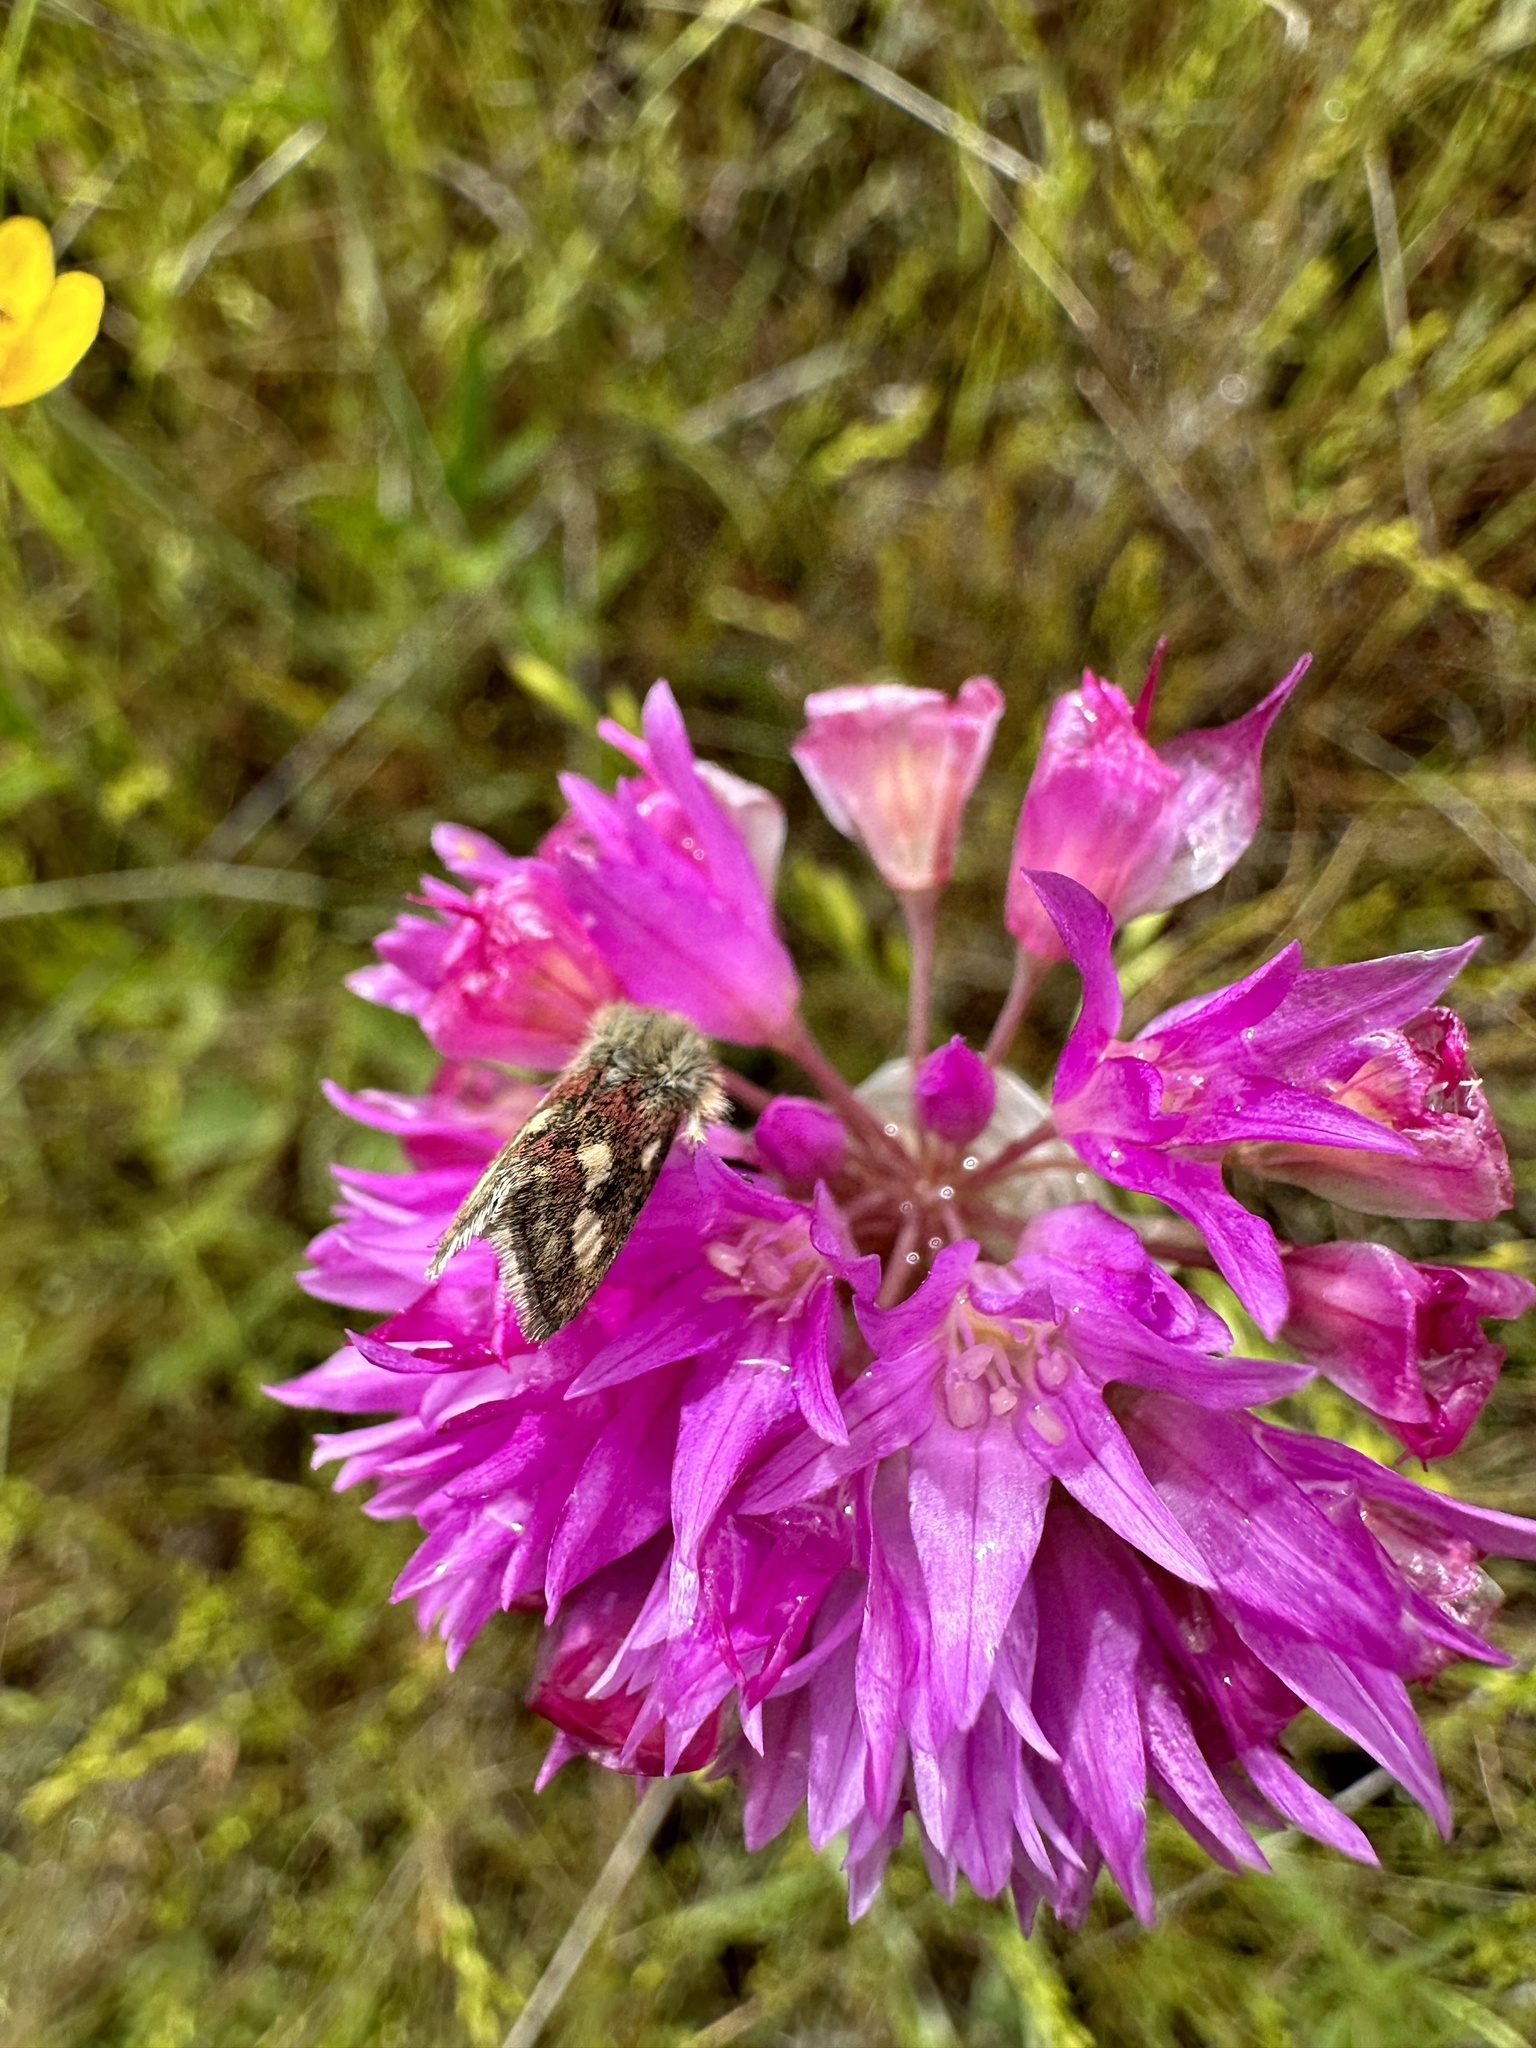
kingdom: Plantae
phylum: Tracheophyta
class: Liliopsida
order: Asparagales
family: Amaryllidaceae
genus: Allium
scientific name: Allium serra
